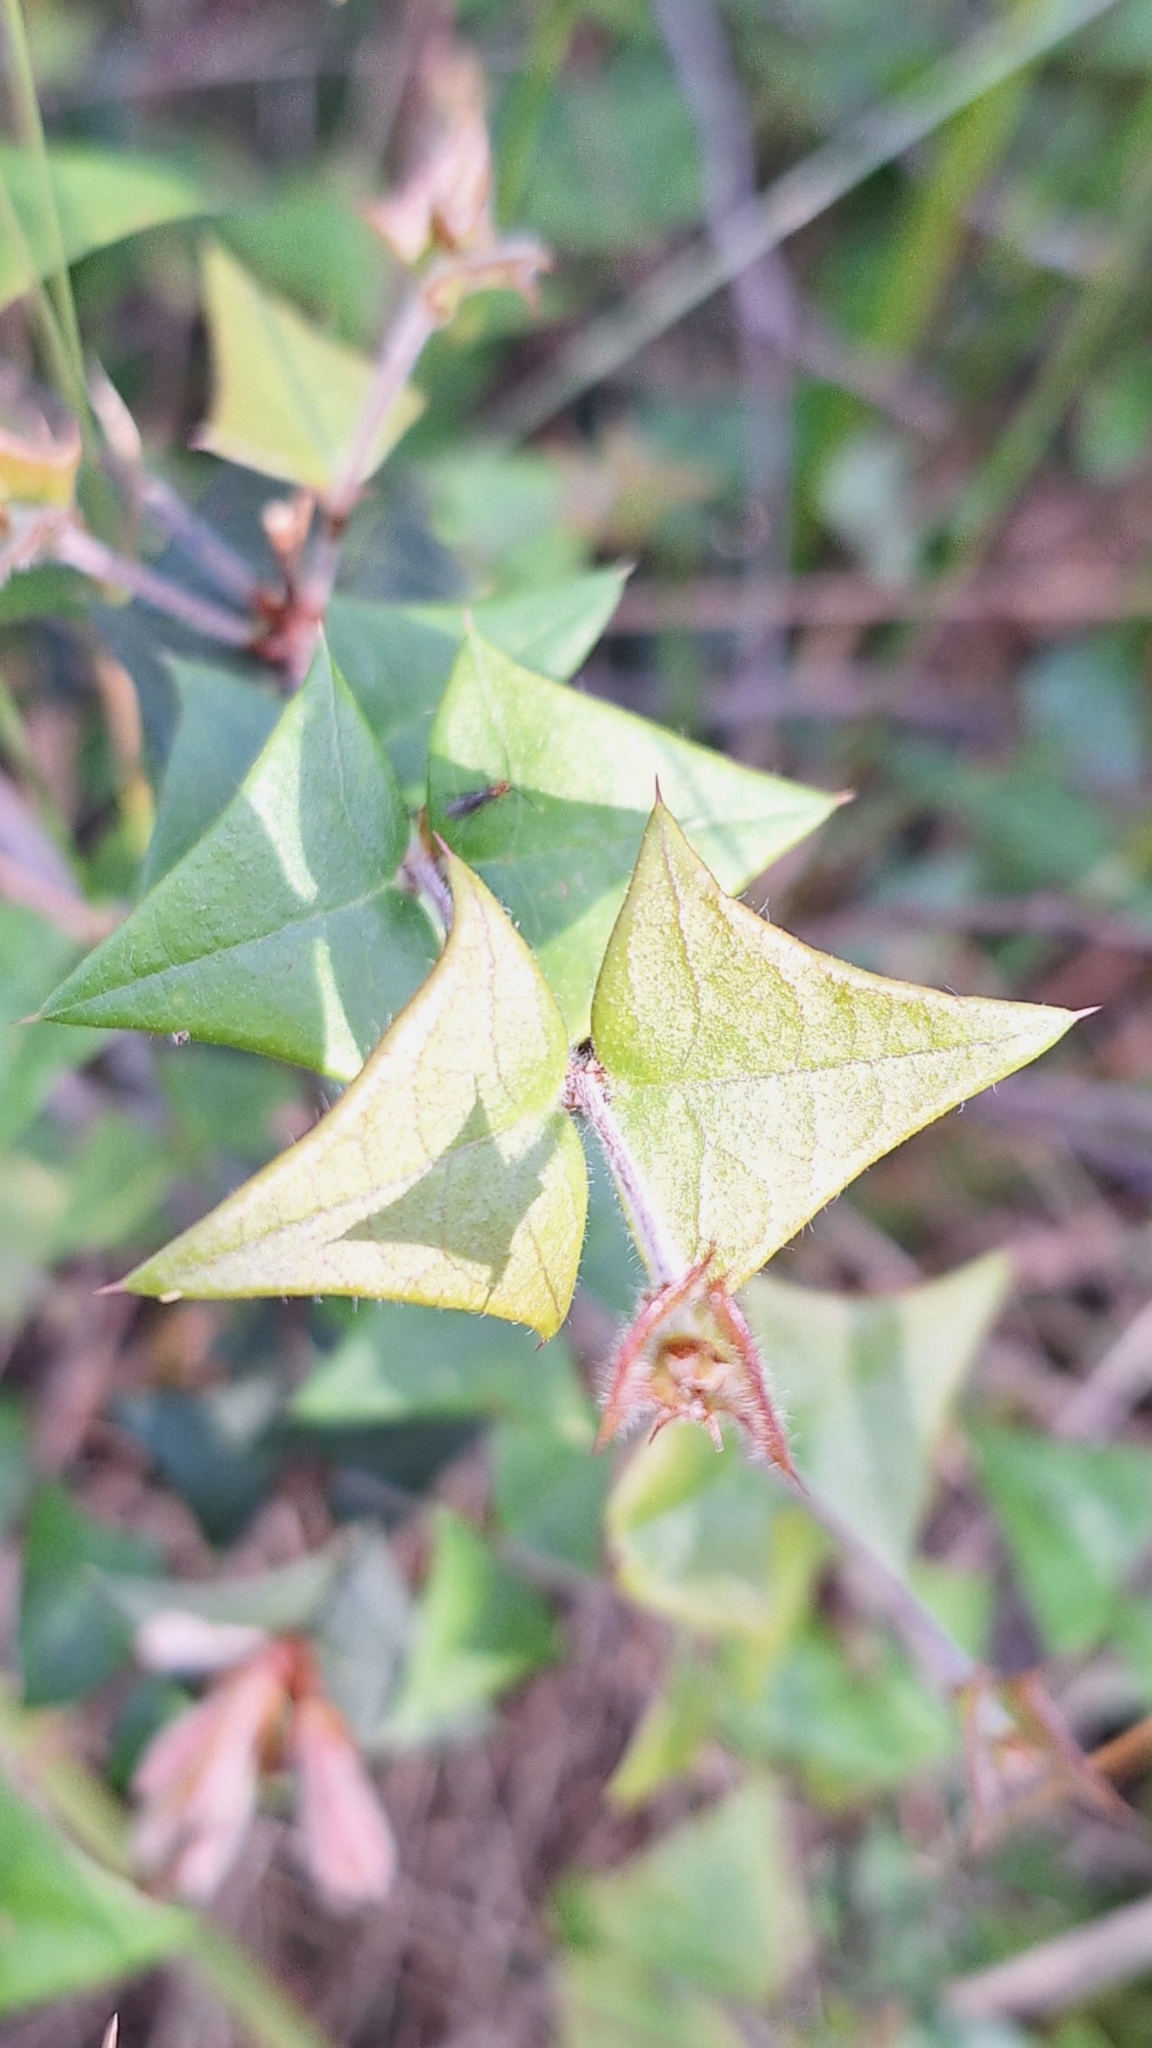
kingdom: Plantae
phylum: Tracheophyta
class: Magnoliopsida
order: Fabales
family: Fabaceae
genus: Platylobium
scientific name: Platylobium obtusangulum
